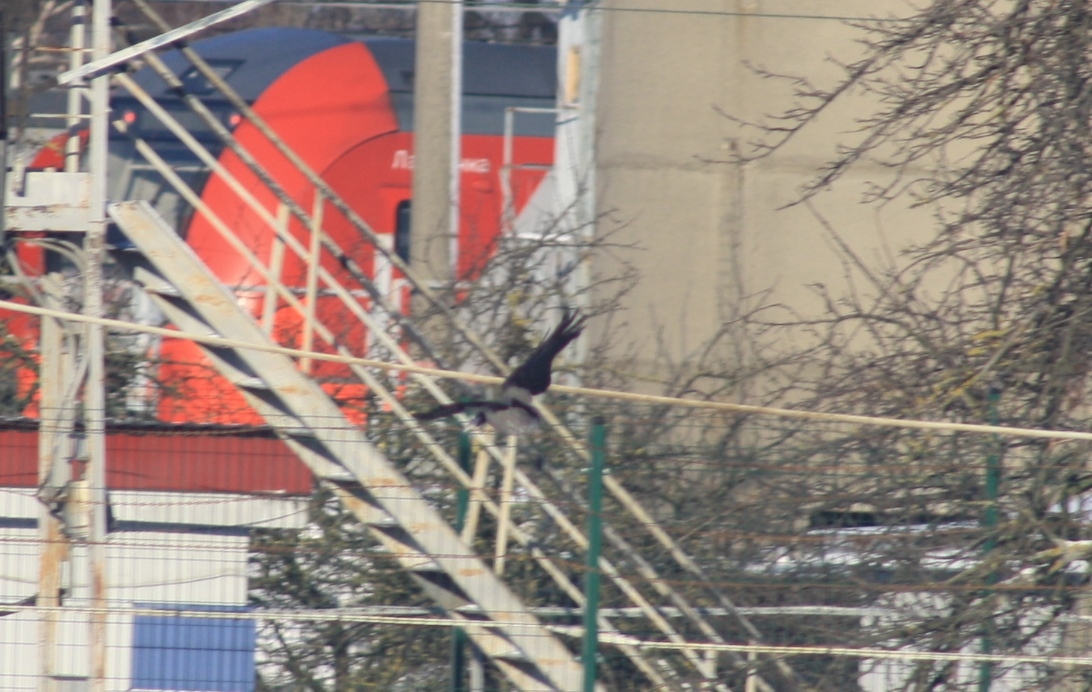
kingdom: Animalia
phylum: Chordata
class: Aves
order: Passeriformes
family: Corvidae
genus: Corvus
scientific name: Corvus cornix
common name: Hooded crow
